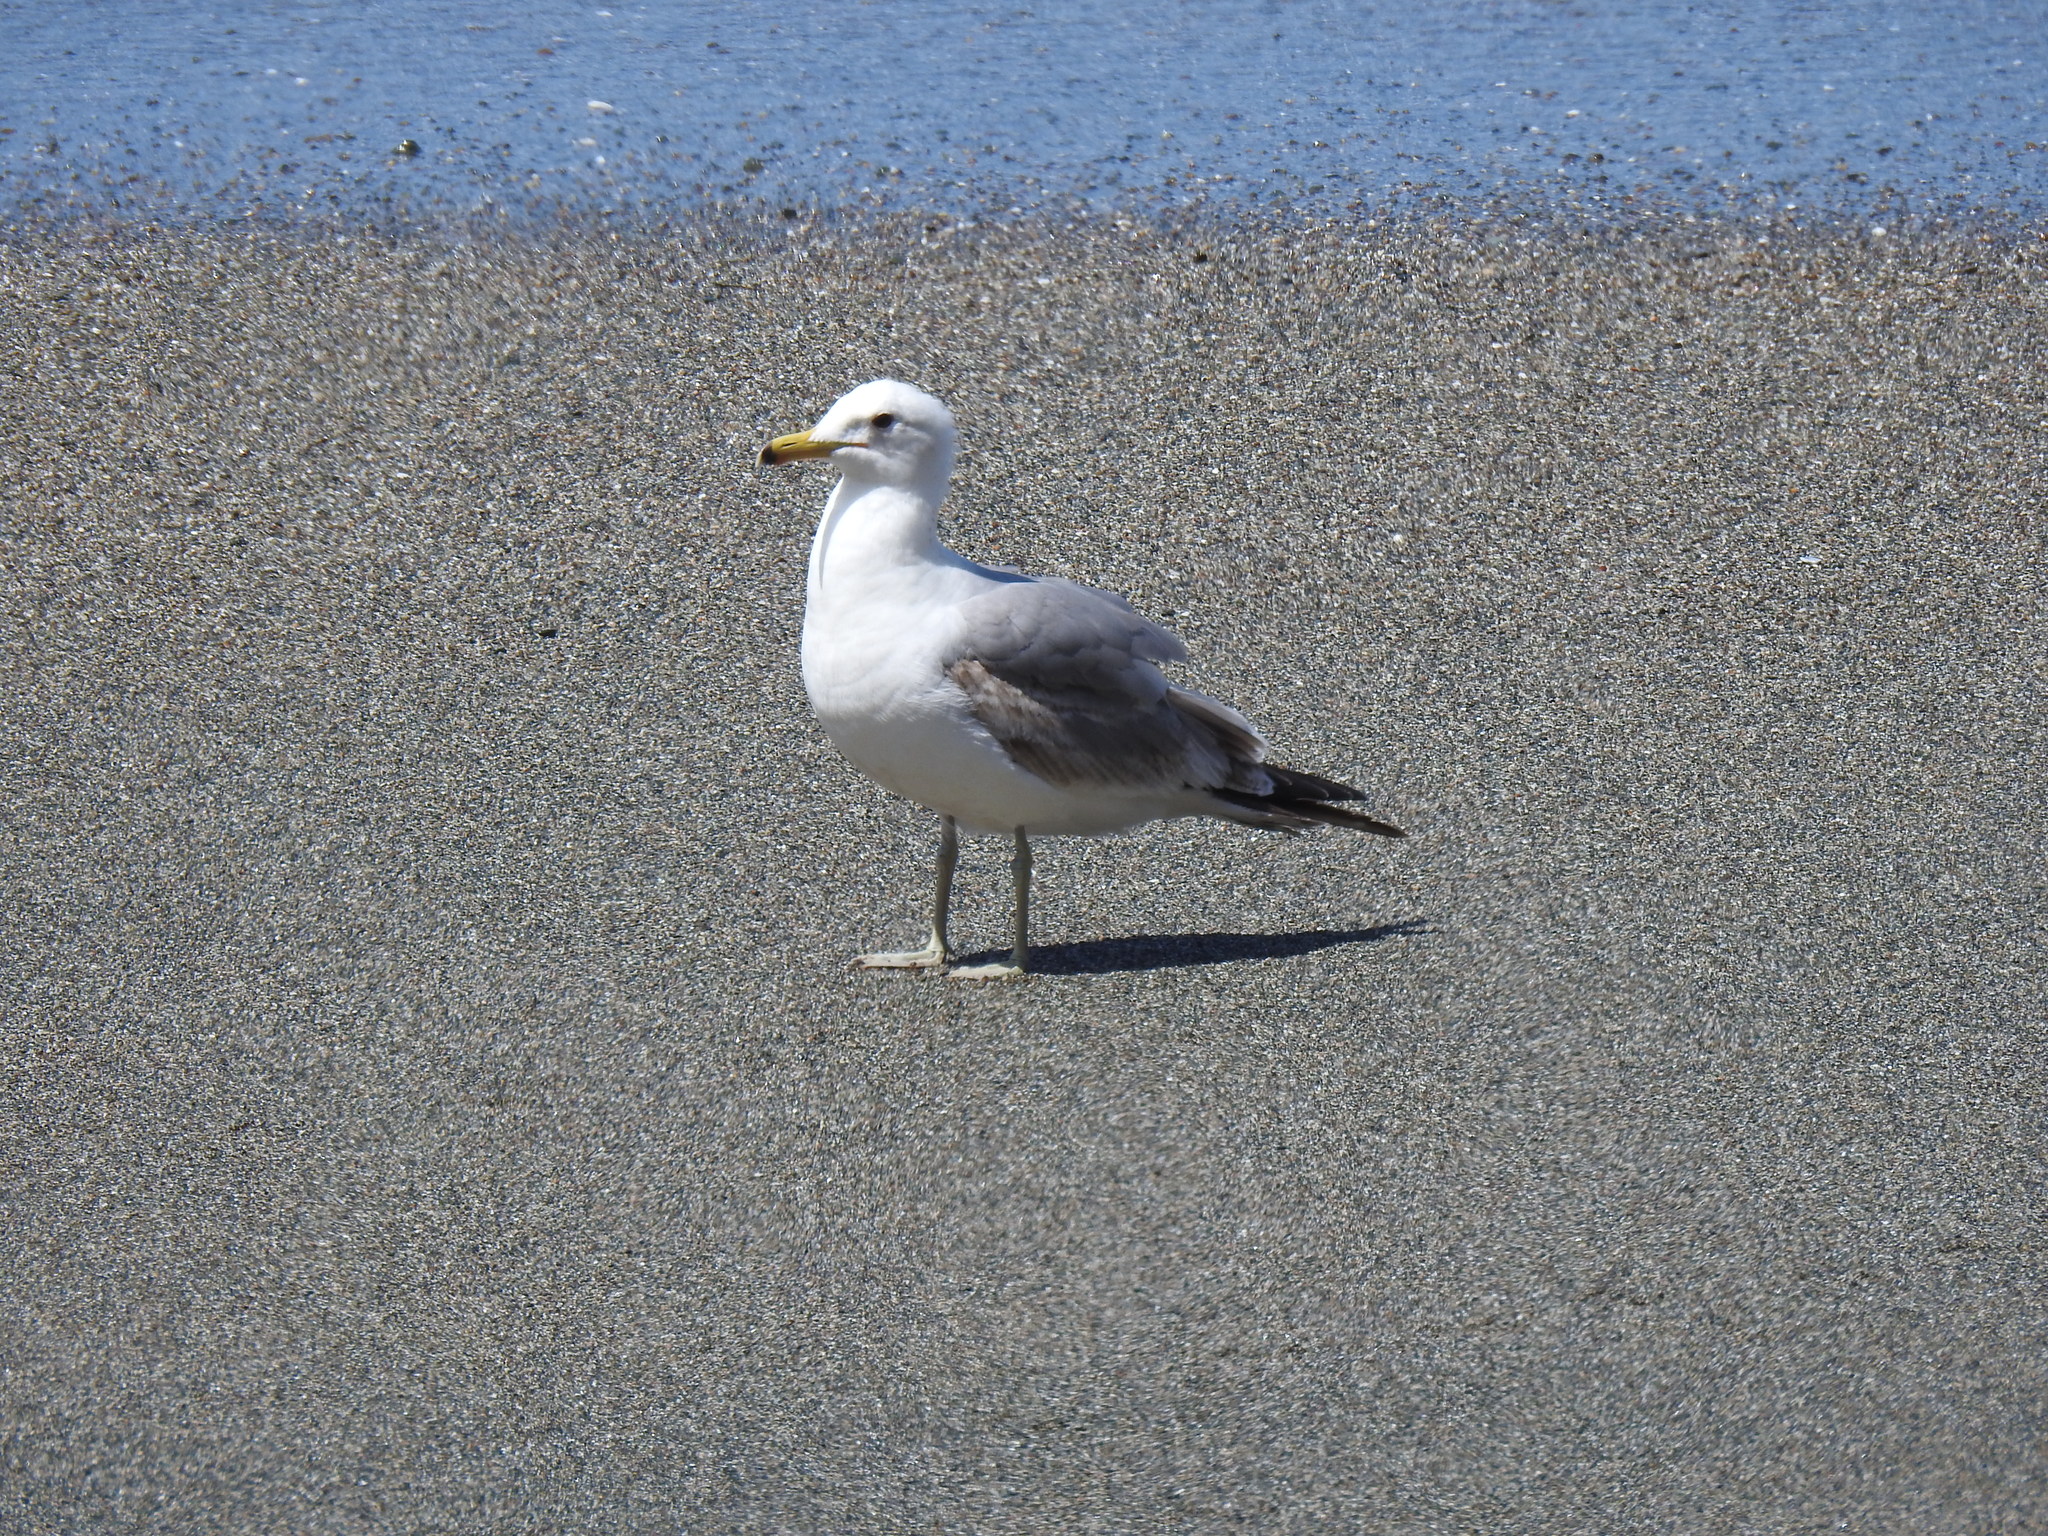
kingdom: Animalia
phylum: Chordata
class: Aves
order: Charadriiformes
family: Laridae
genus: Larus
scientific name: Larus californicus
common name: California gull
